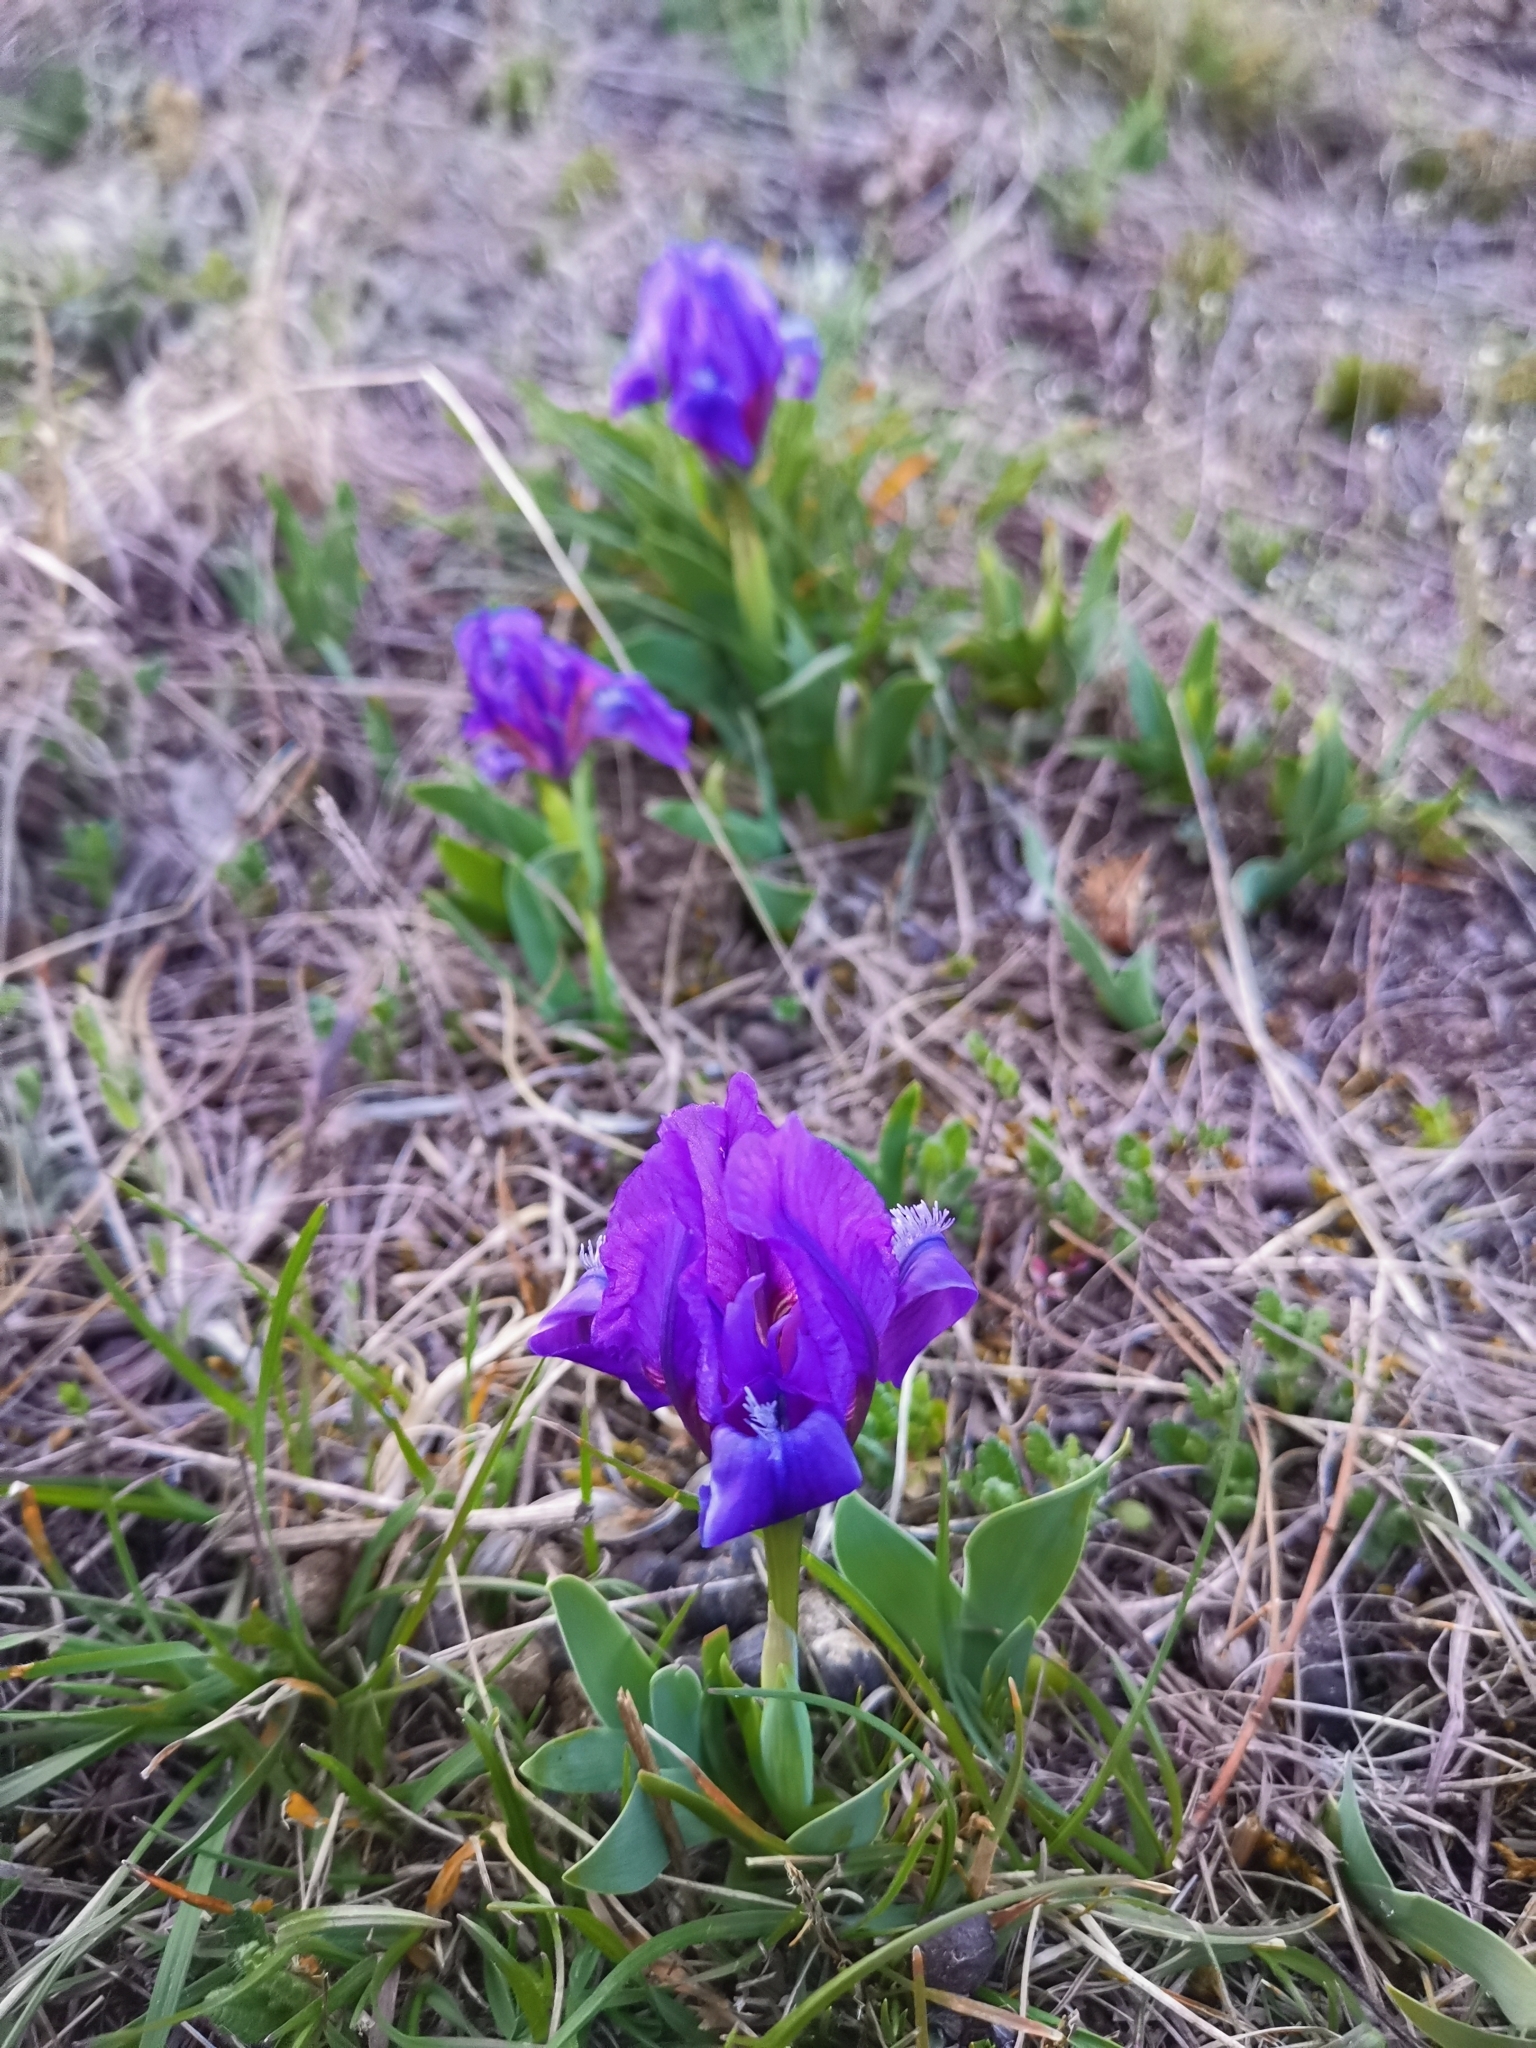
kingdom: Plantae
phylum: Tracheophyta
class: Liliopsida
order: Asparagales
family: Iridaceae
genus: Iris
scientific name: Iris pumila
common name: Dwarf iris
